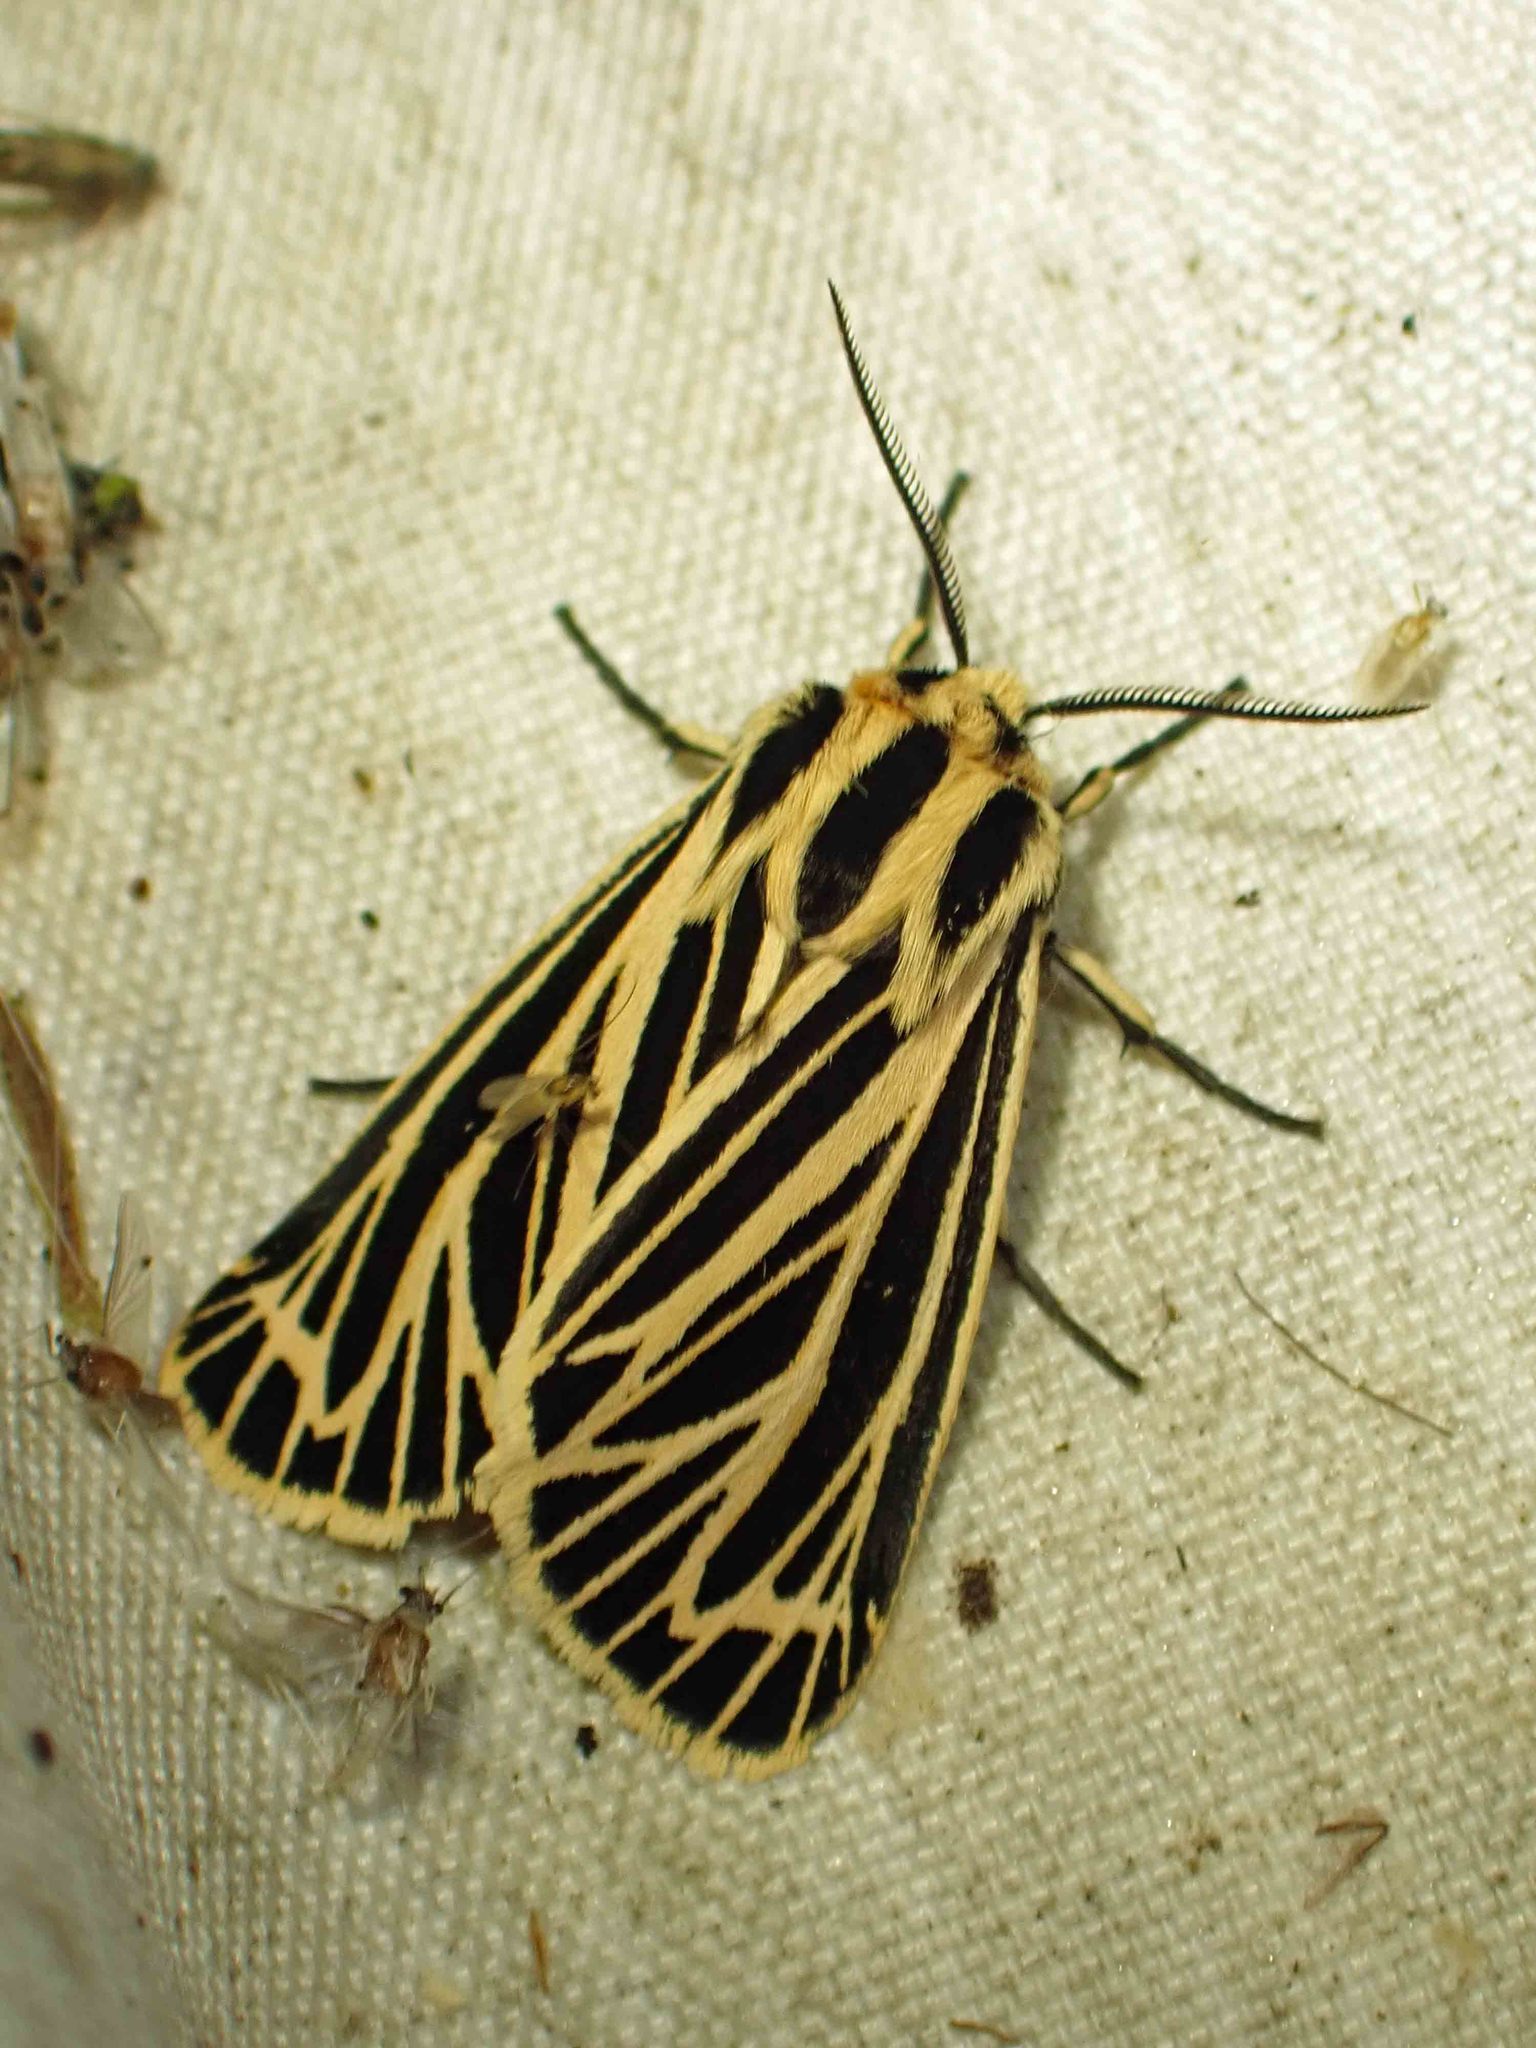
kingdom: Animalia
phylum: Arthropoda
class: Insecta
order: Lepidoptera
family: Erebidae
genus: Grammia
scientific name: Grammia virguncula
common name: Little tiger moth
